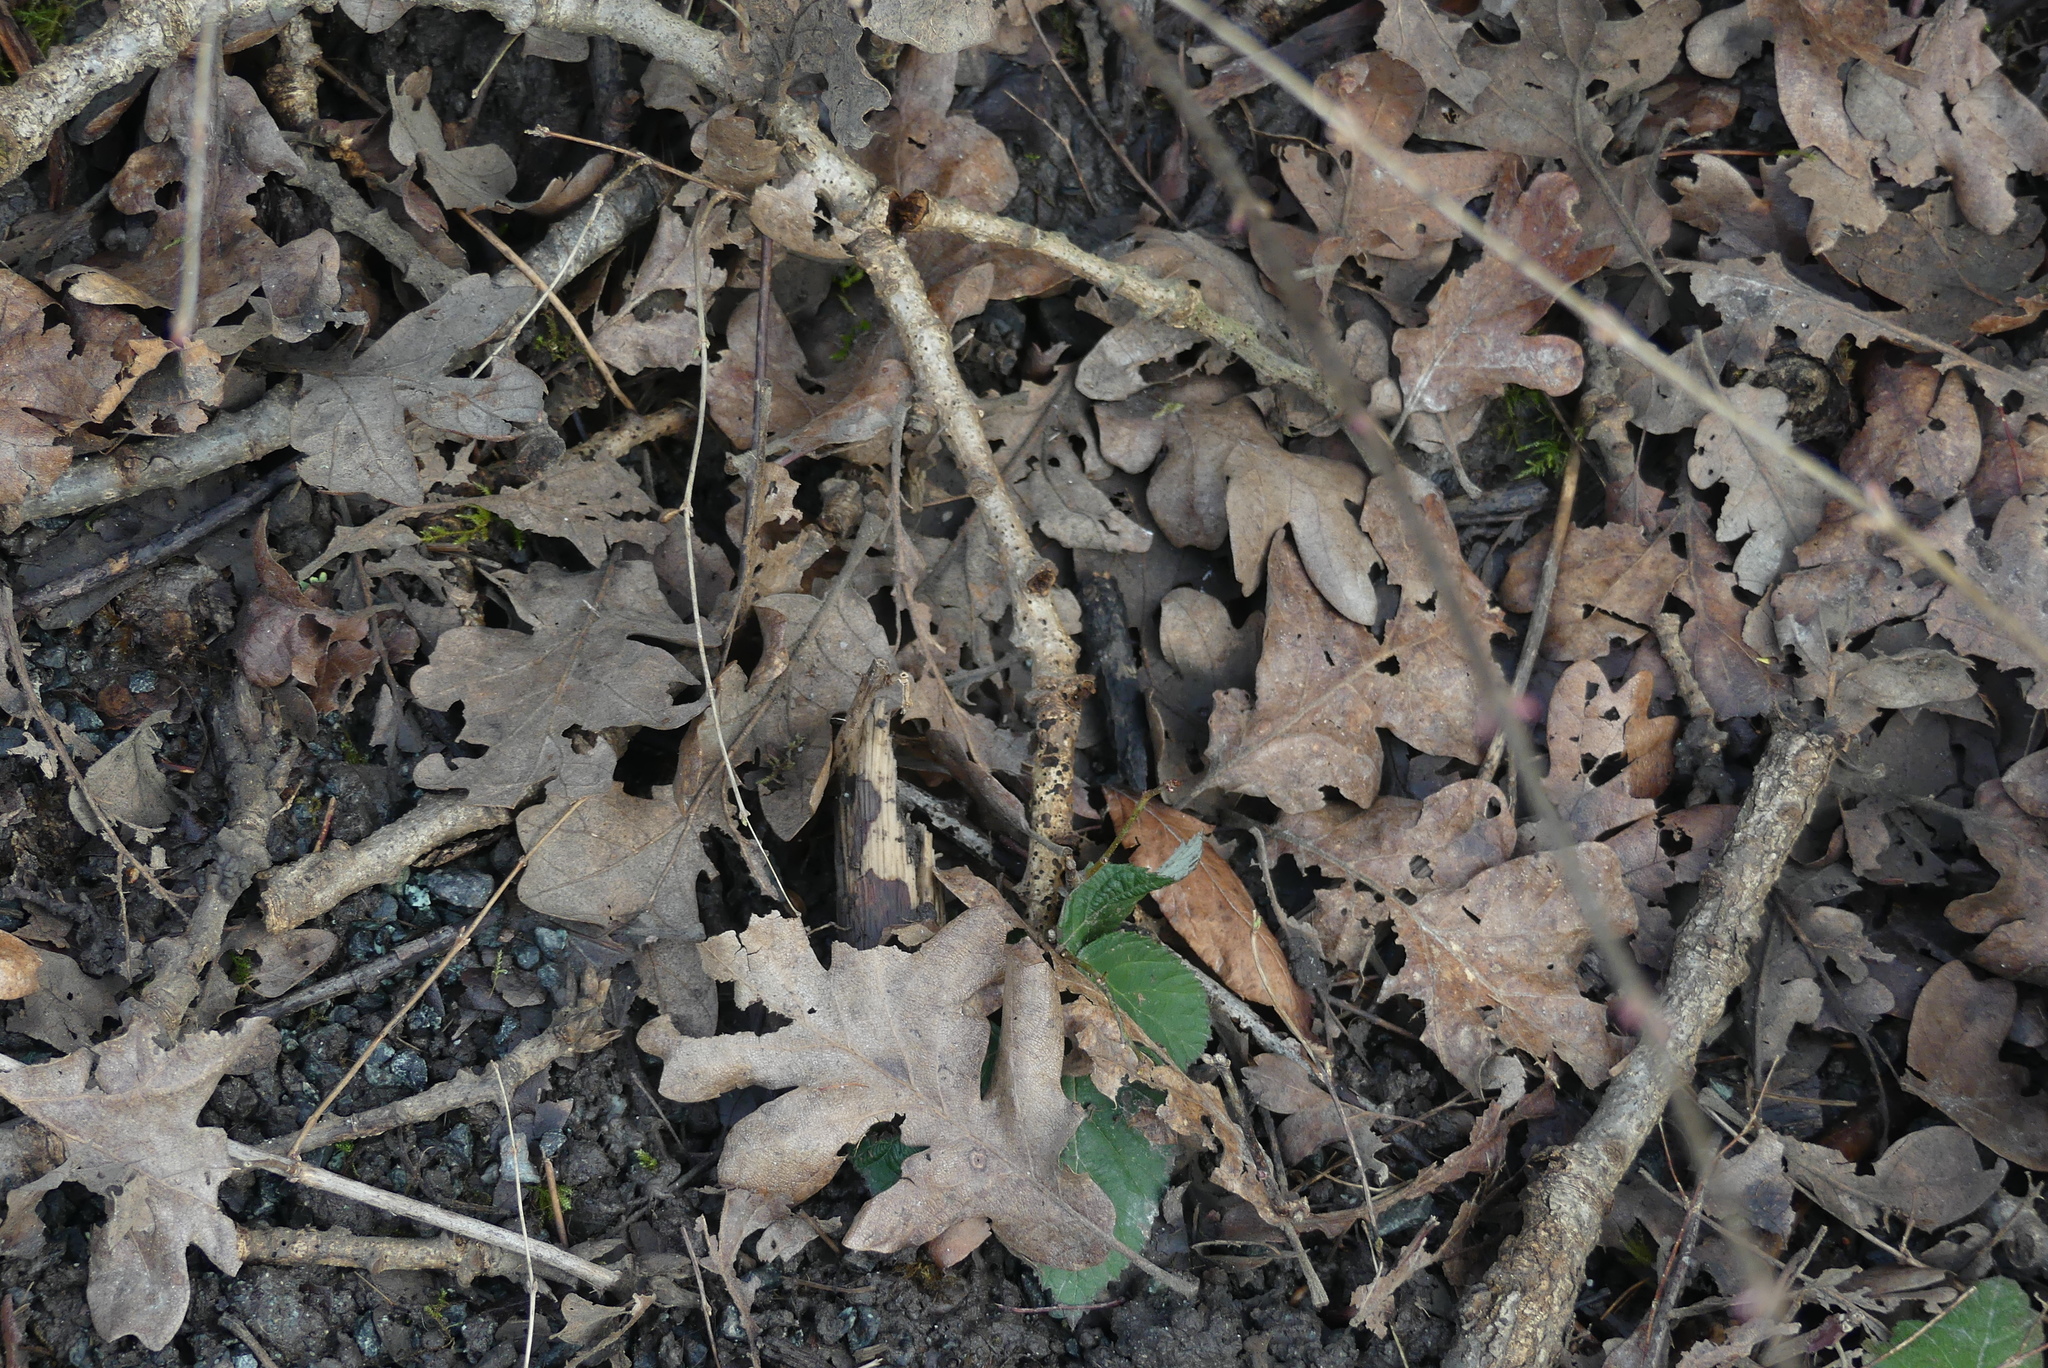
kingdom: Plantae
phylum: Tracheophyta
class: Magnoliopsida
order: Fagales
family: Fagaceae
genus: Quercus
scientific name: Quercus garryana
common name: Garry oak
